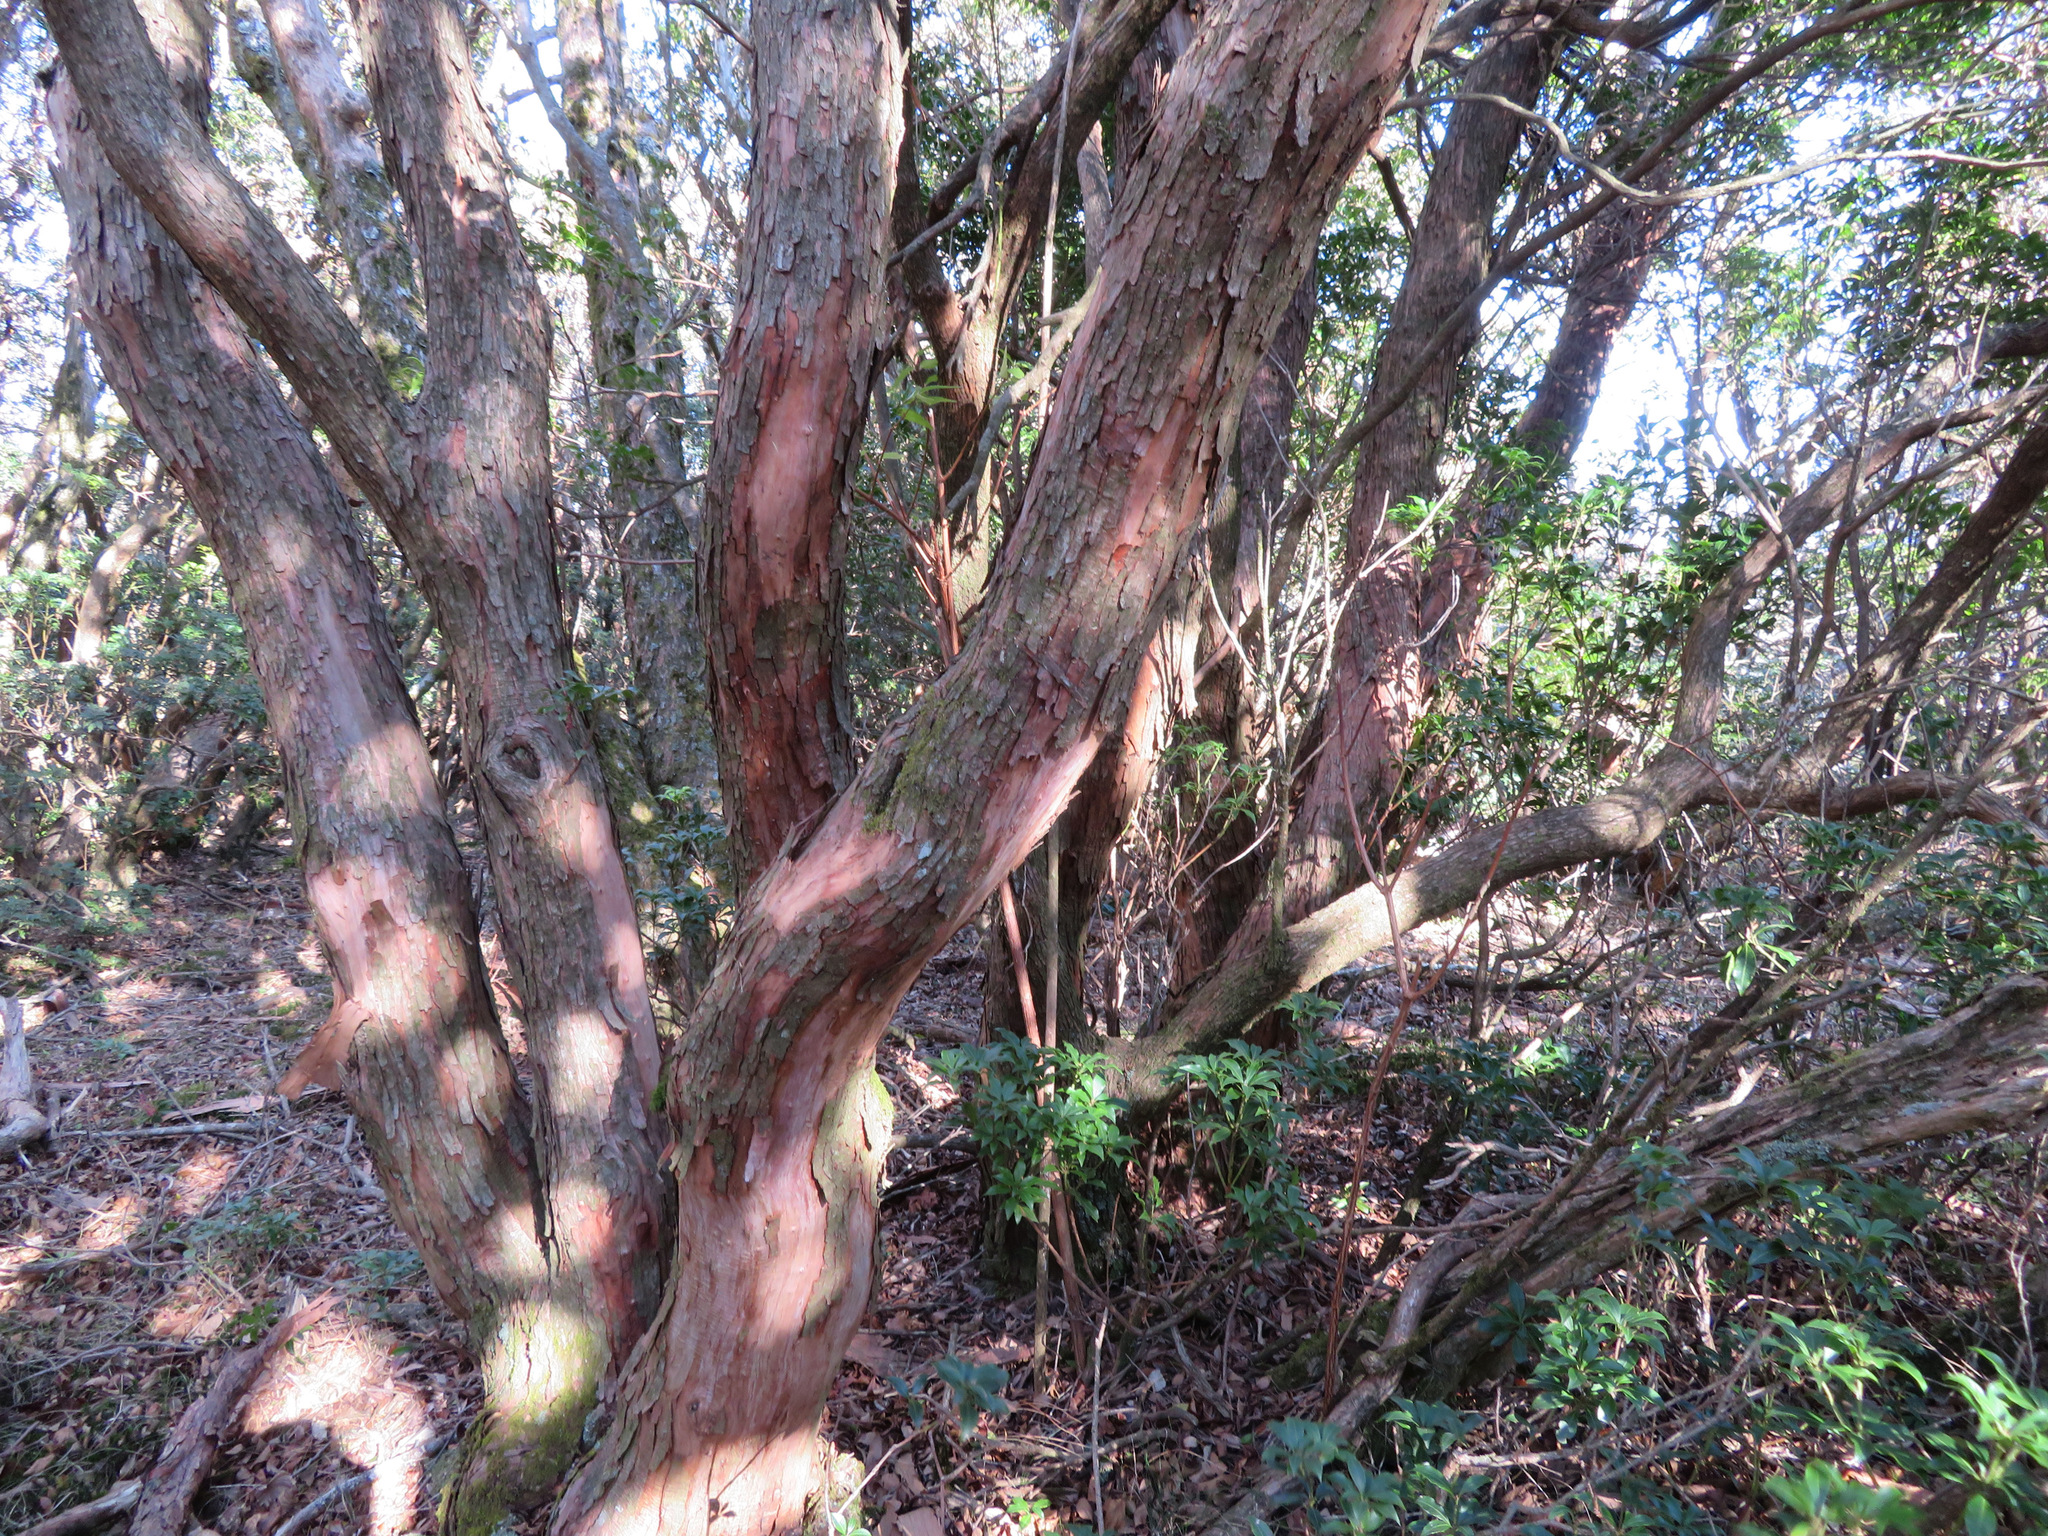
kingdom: Plantae
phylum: Tracheophyta
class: Magnoliopsida
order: Ericales
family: Ericaceae
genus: Pieris
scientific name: Pieris japonica
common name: Japanese pieris
